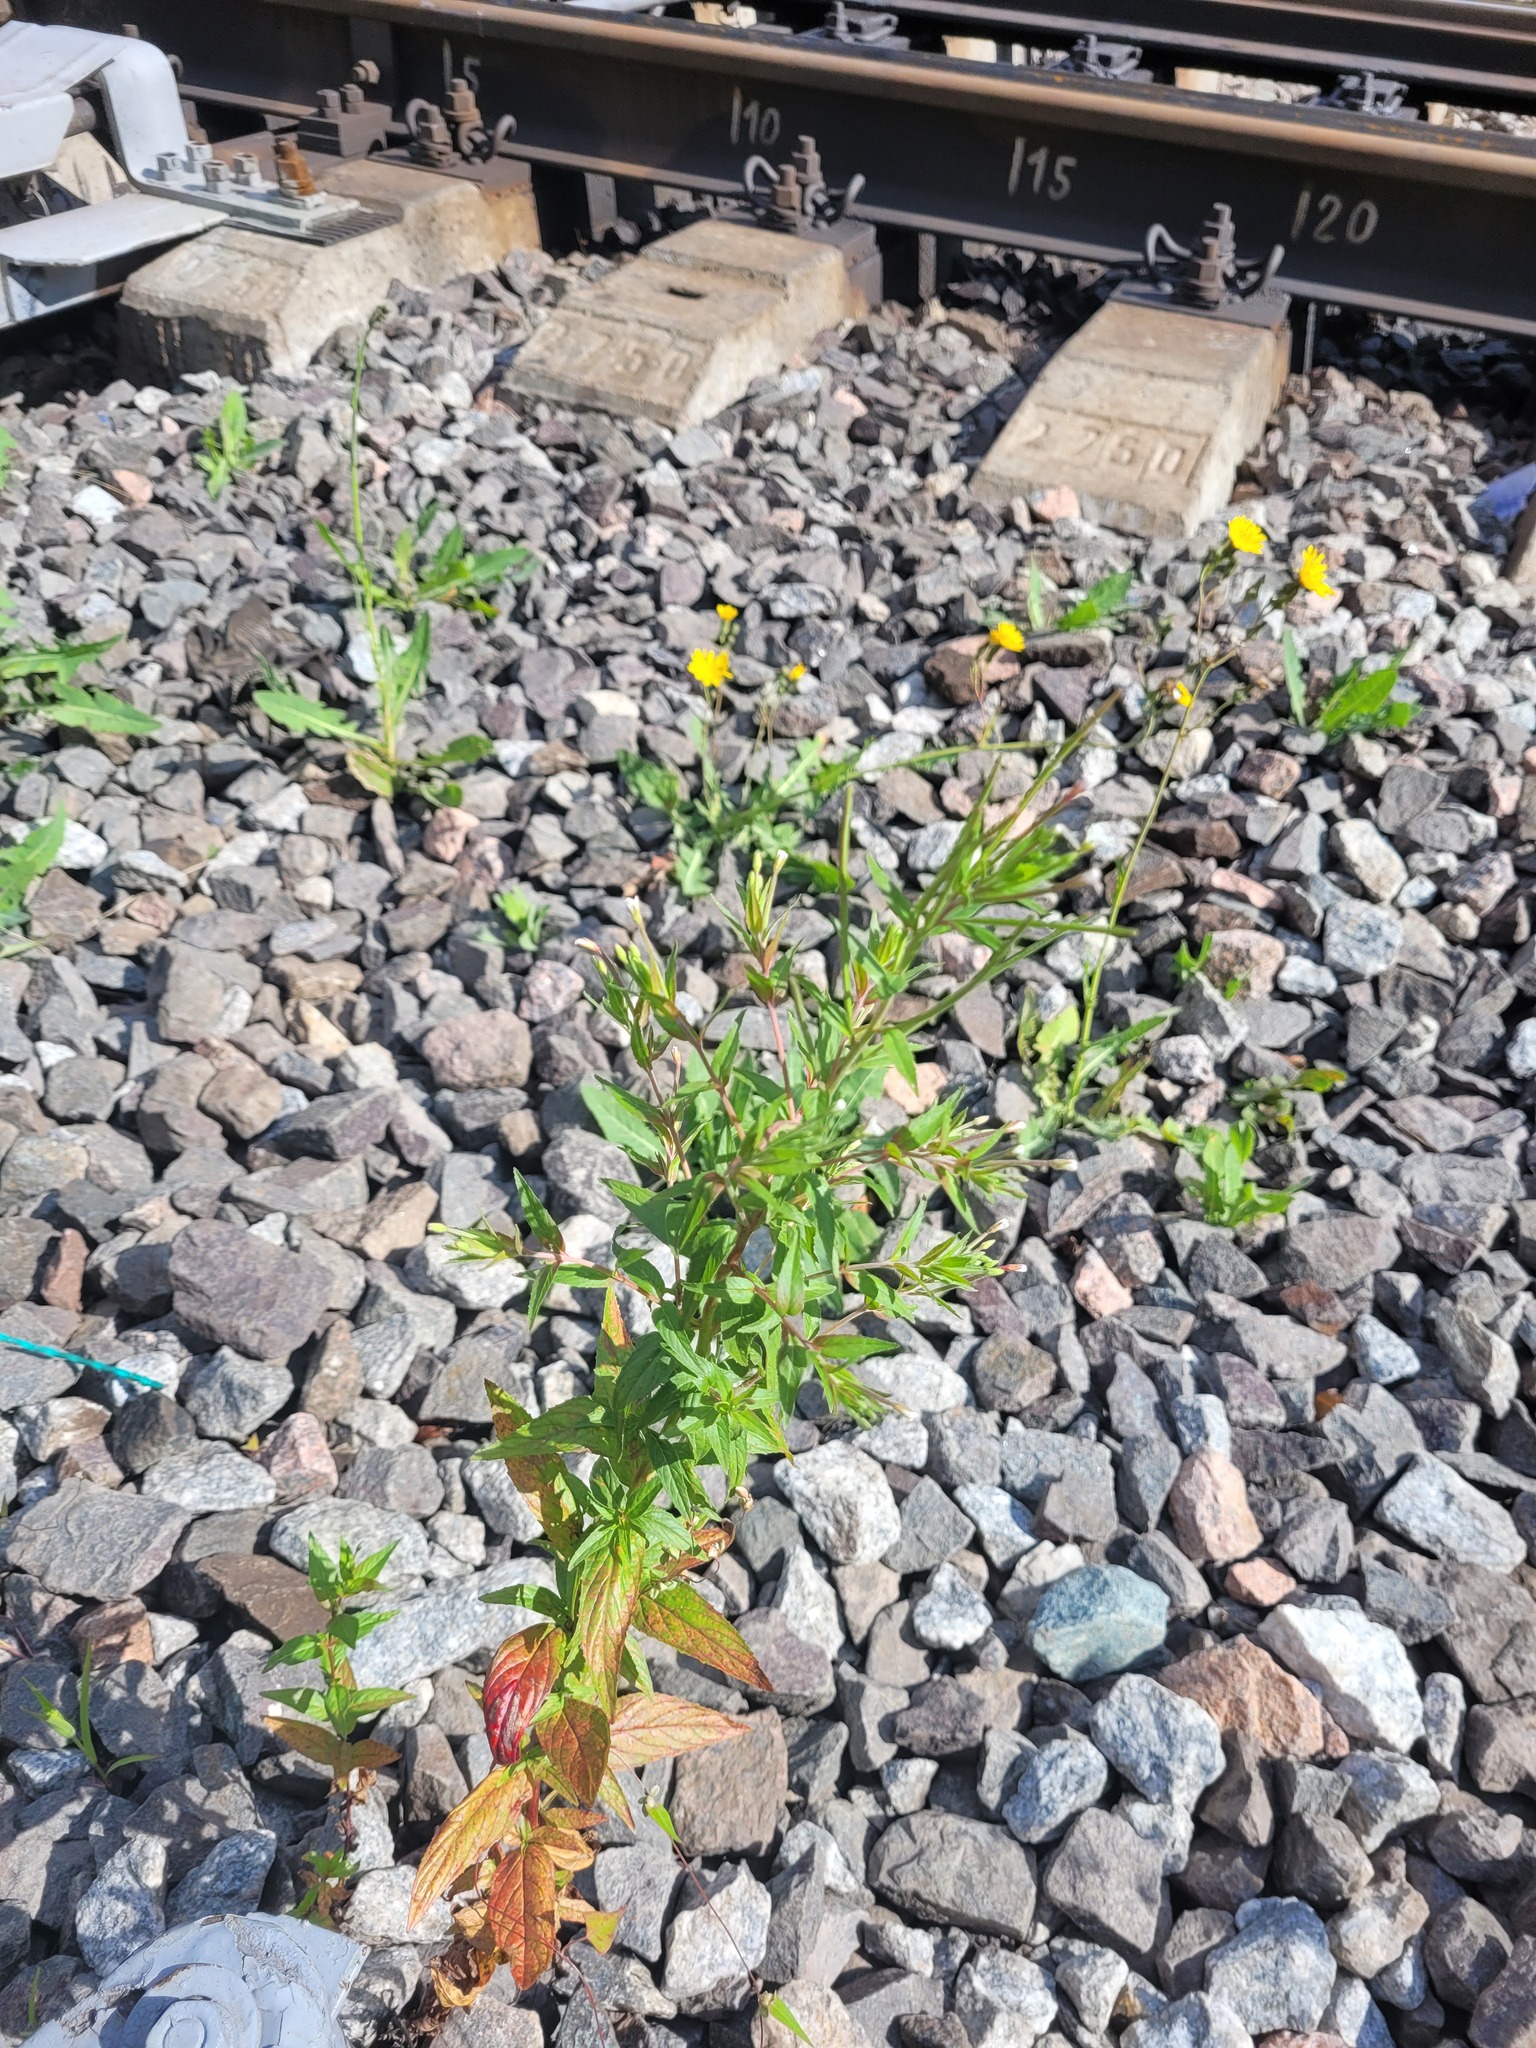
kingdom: Plantae
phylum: Tracheophyta
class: Magnoliopsida
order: Myrtales
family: Onagraceae
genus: Epilobium
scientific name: Epilobium pseudorubescens
